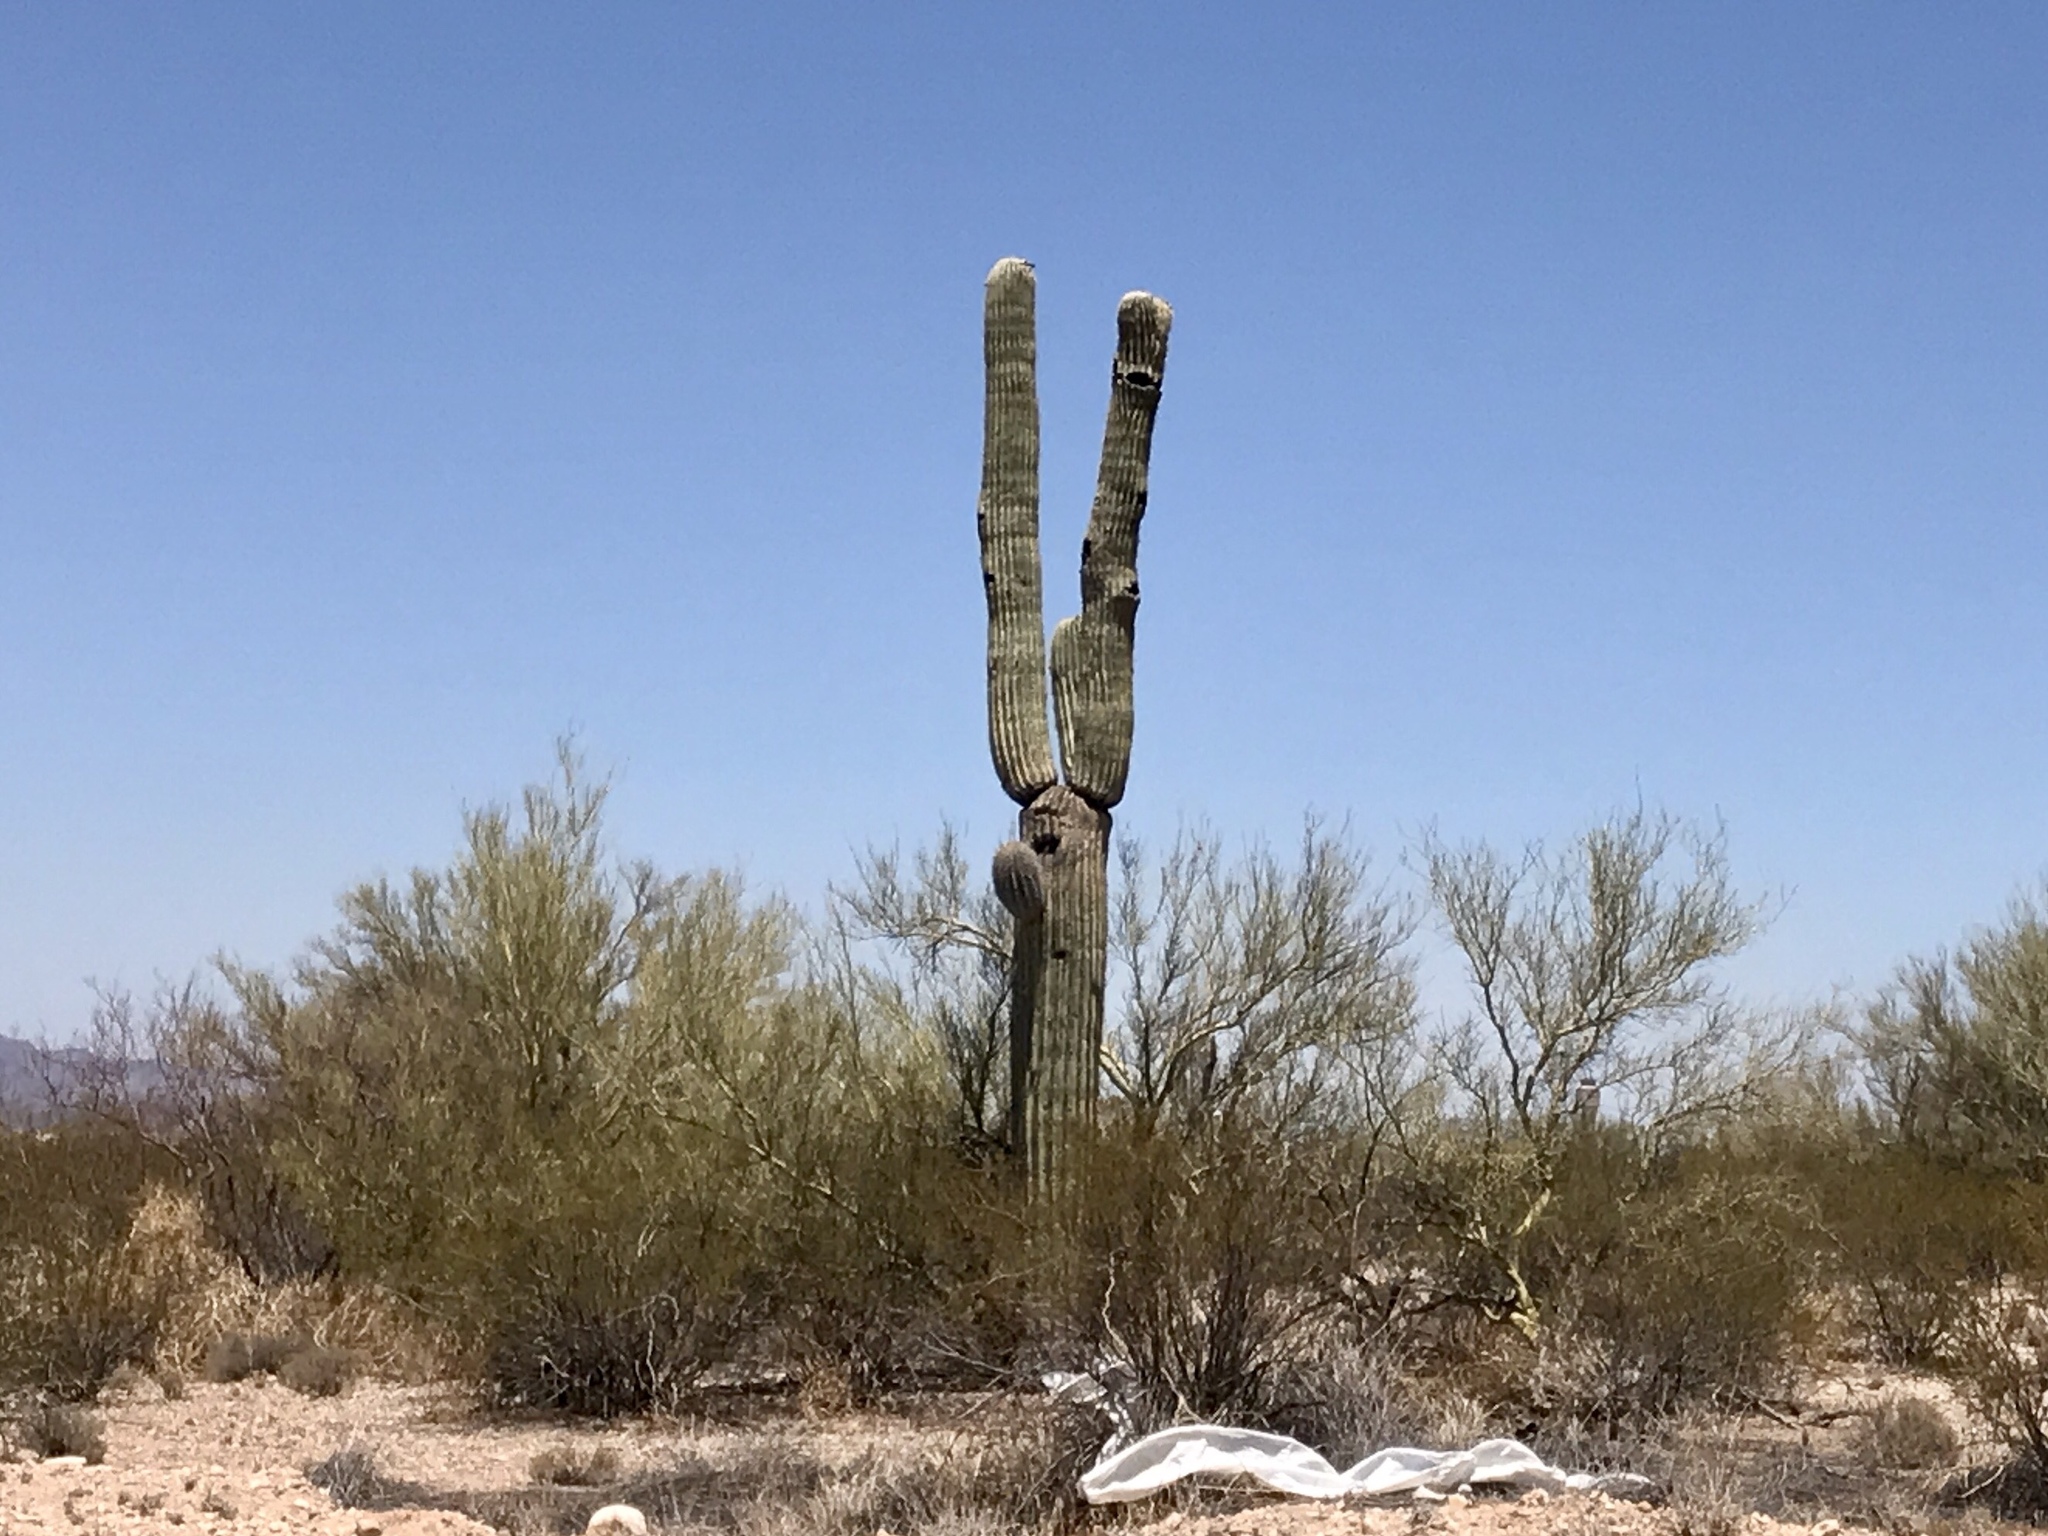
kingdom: Plantae
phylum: Tracheophyta
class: Magnoliopsida
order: Caryophyllales
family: Cactaceae
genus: Carnegiea
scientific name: Carnegiea gigantea
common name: Saguaro
